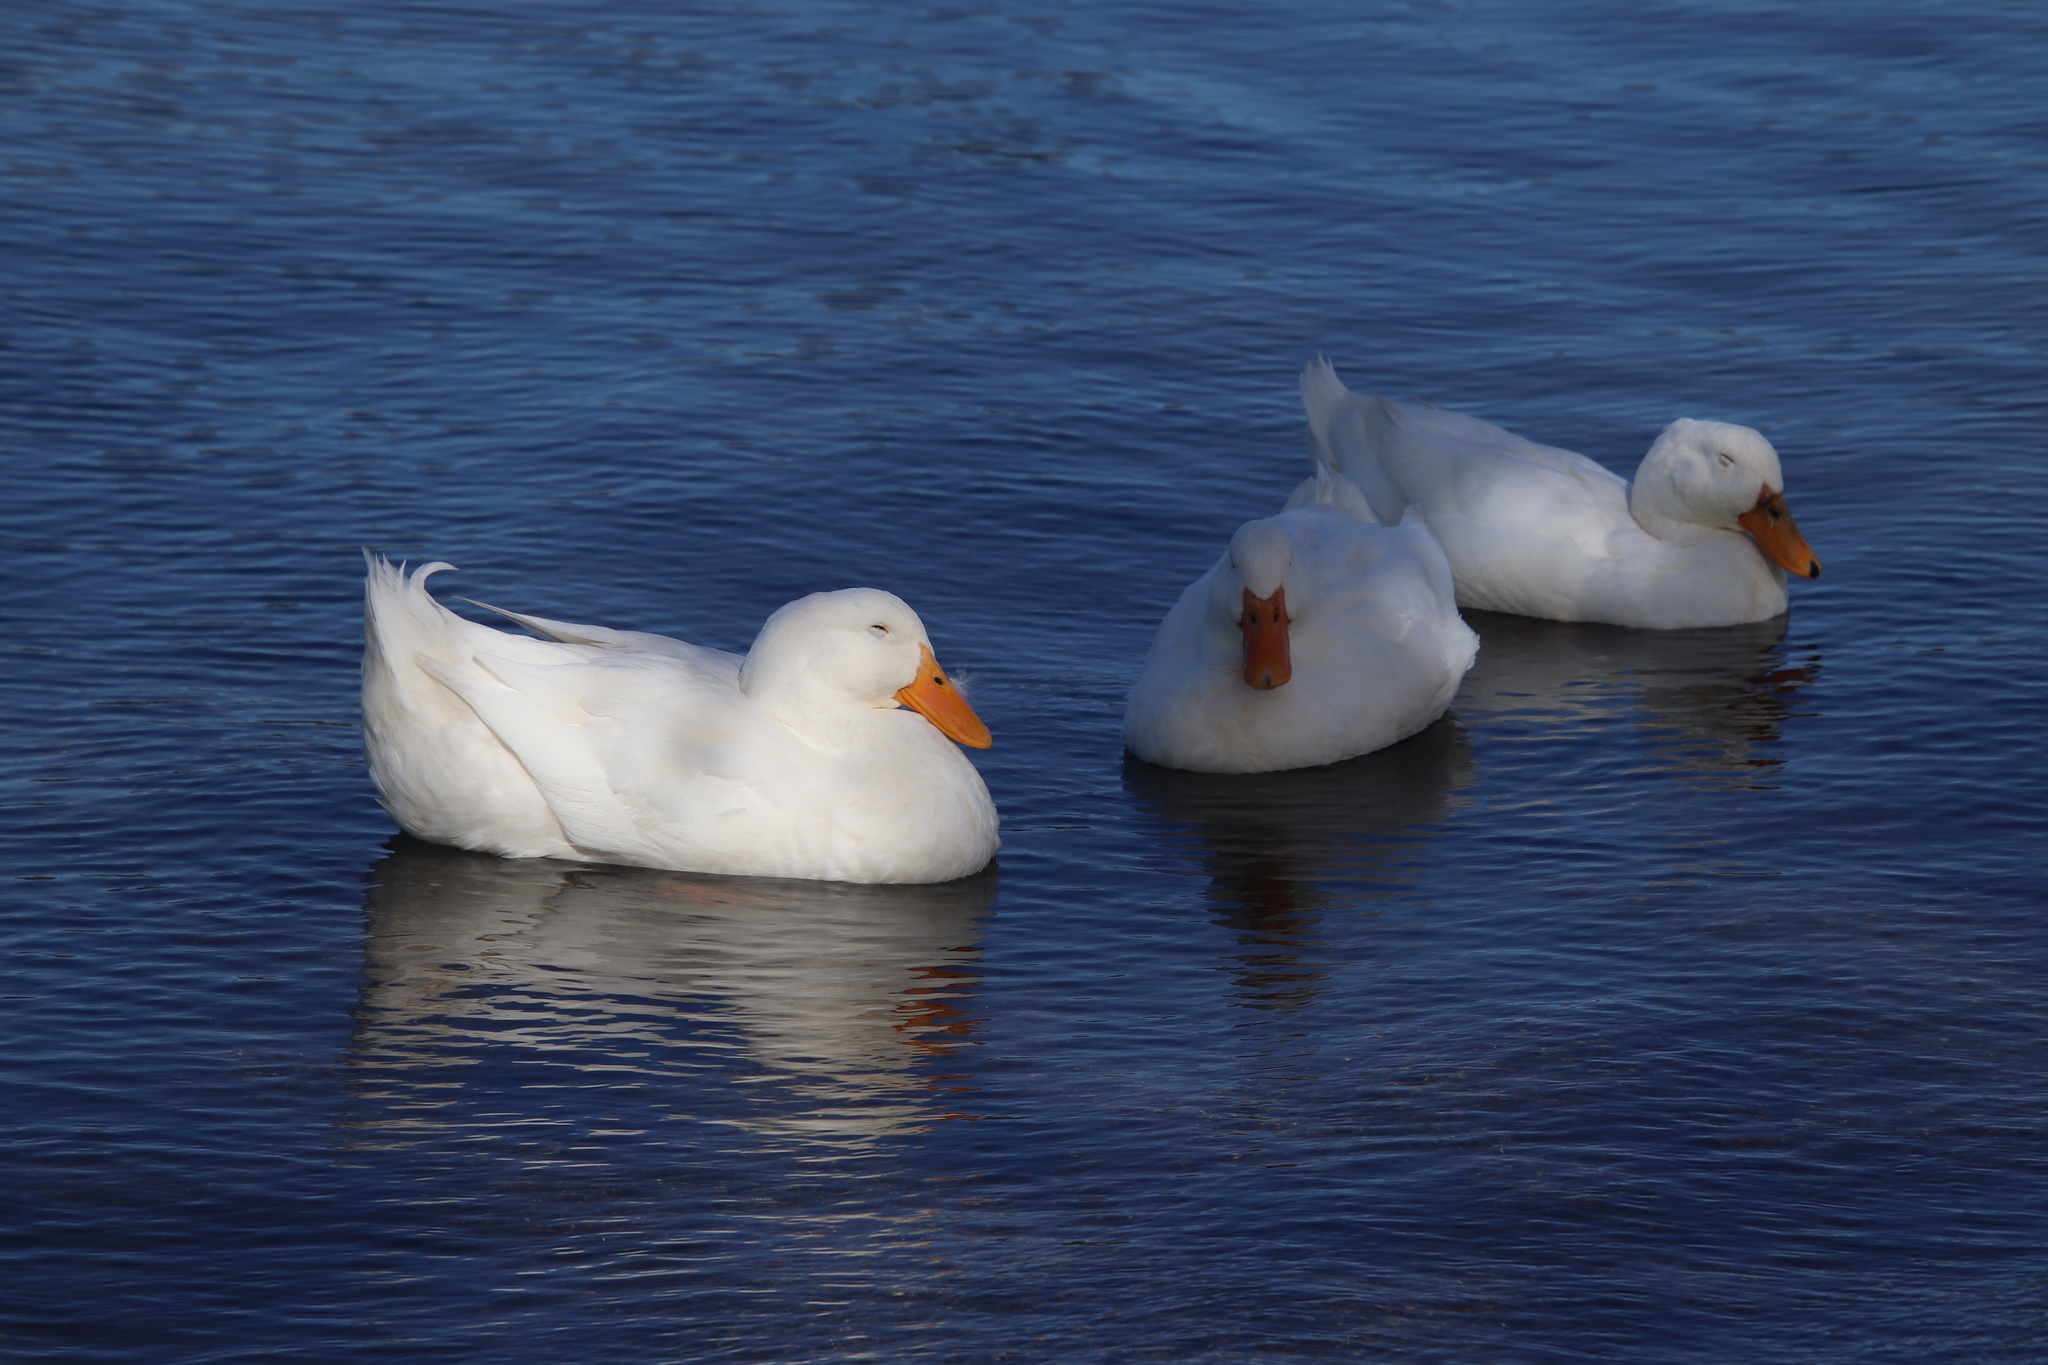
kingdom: Animalia
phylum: Chordata
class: Aves
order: Anseriformes
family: Anatidae
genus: Anas
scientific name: Anas platyrhynchos
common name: Mallard
